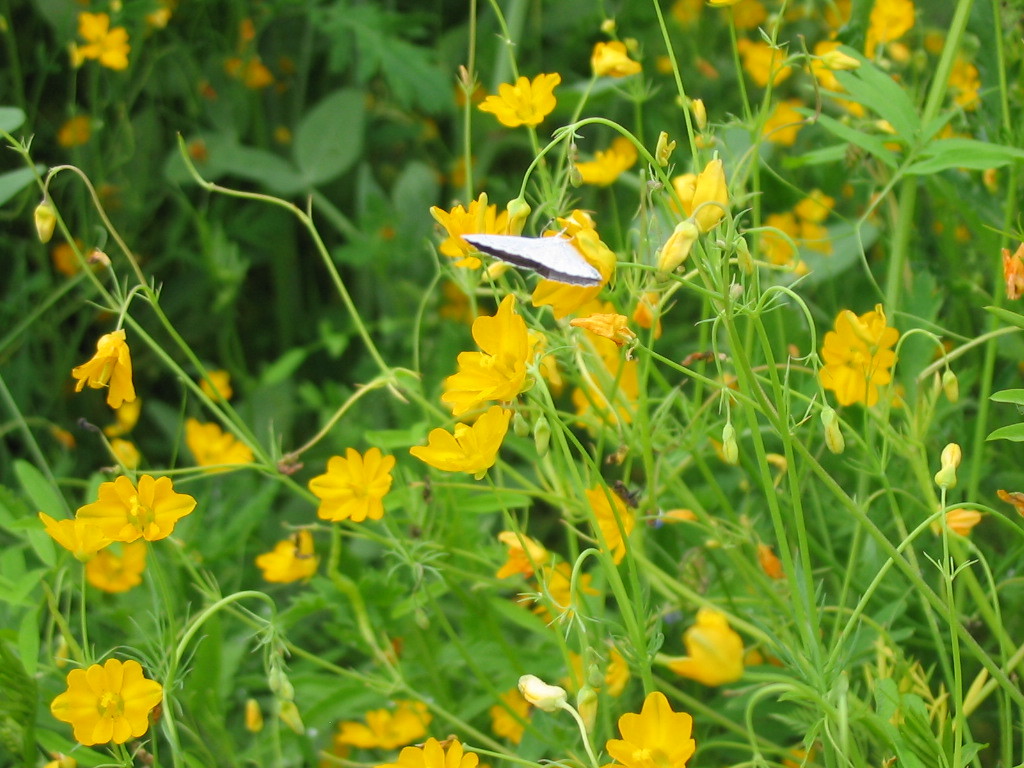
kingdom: Animalia
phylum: Arthropoda
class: Insecta
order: Lepidoptera
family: Lycaenidae
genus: Celastrina
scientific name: Celastrina argiolus
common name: Holly blue
